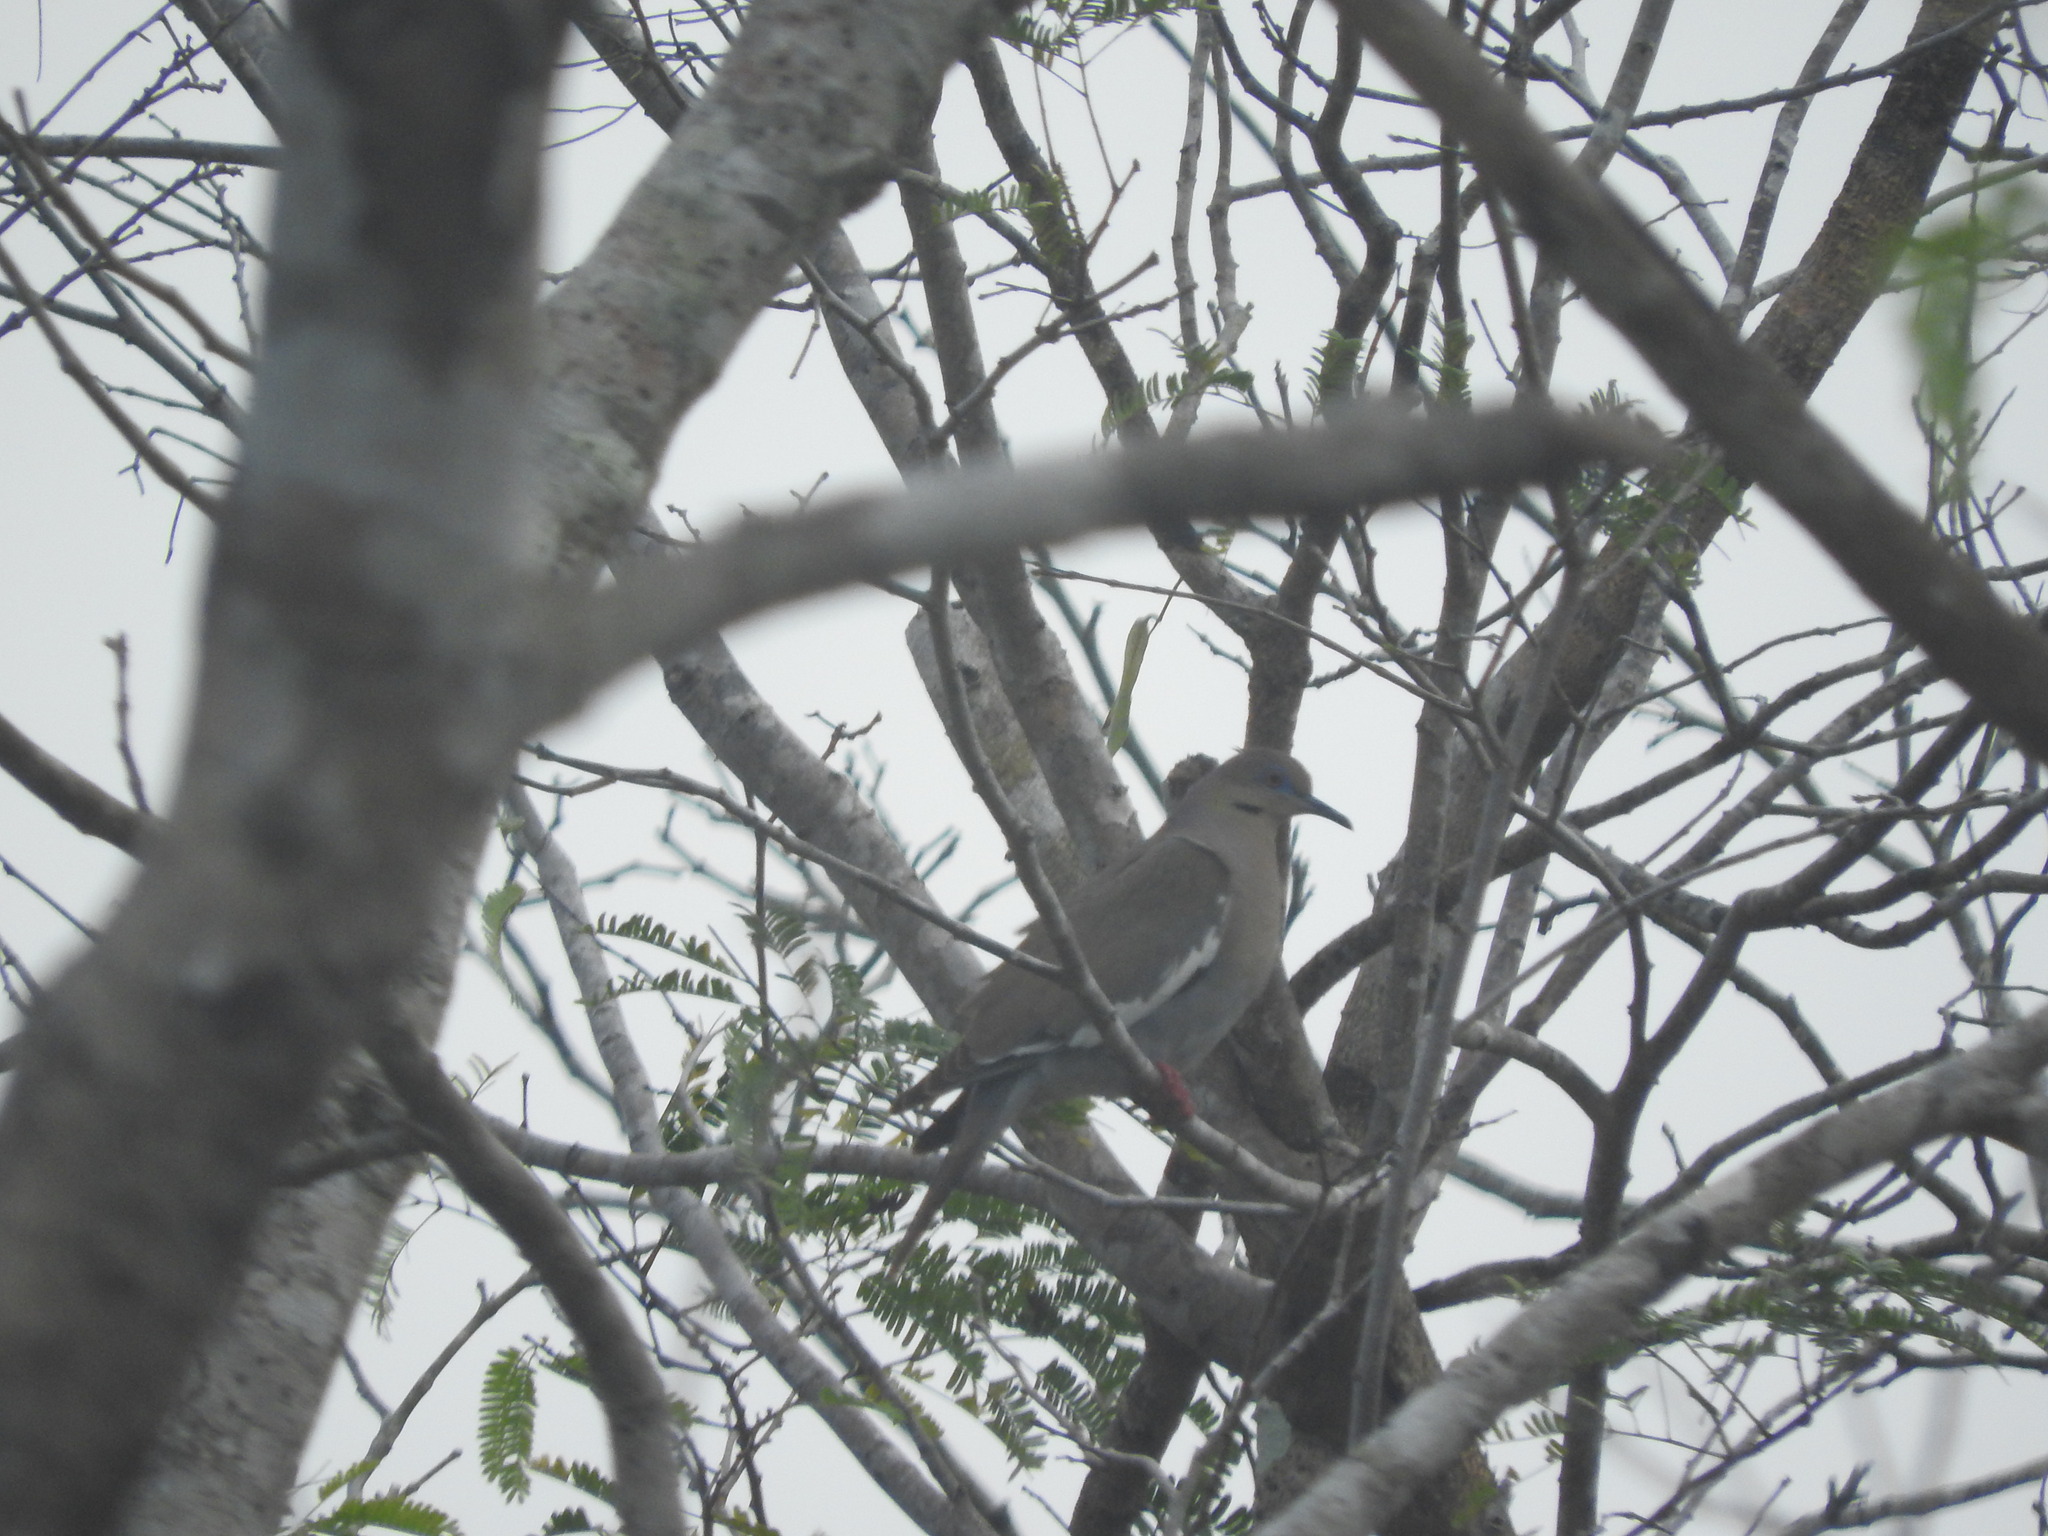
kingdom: Animalia
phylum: Chordata
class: Aves
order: Columbiformes
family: Columbidae
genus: Zenaida
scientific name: Zenaida asiatica
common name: White-winged dove
